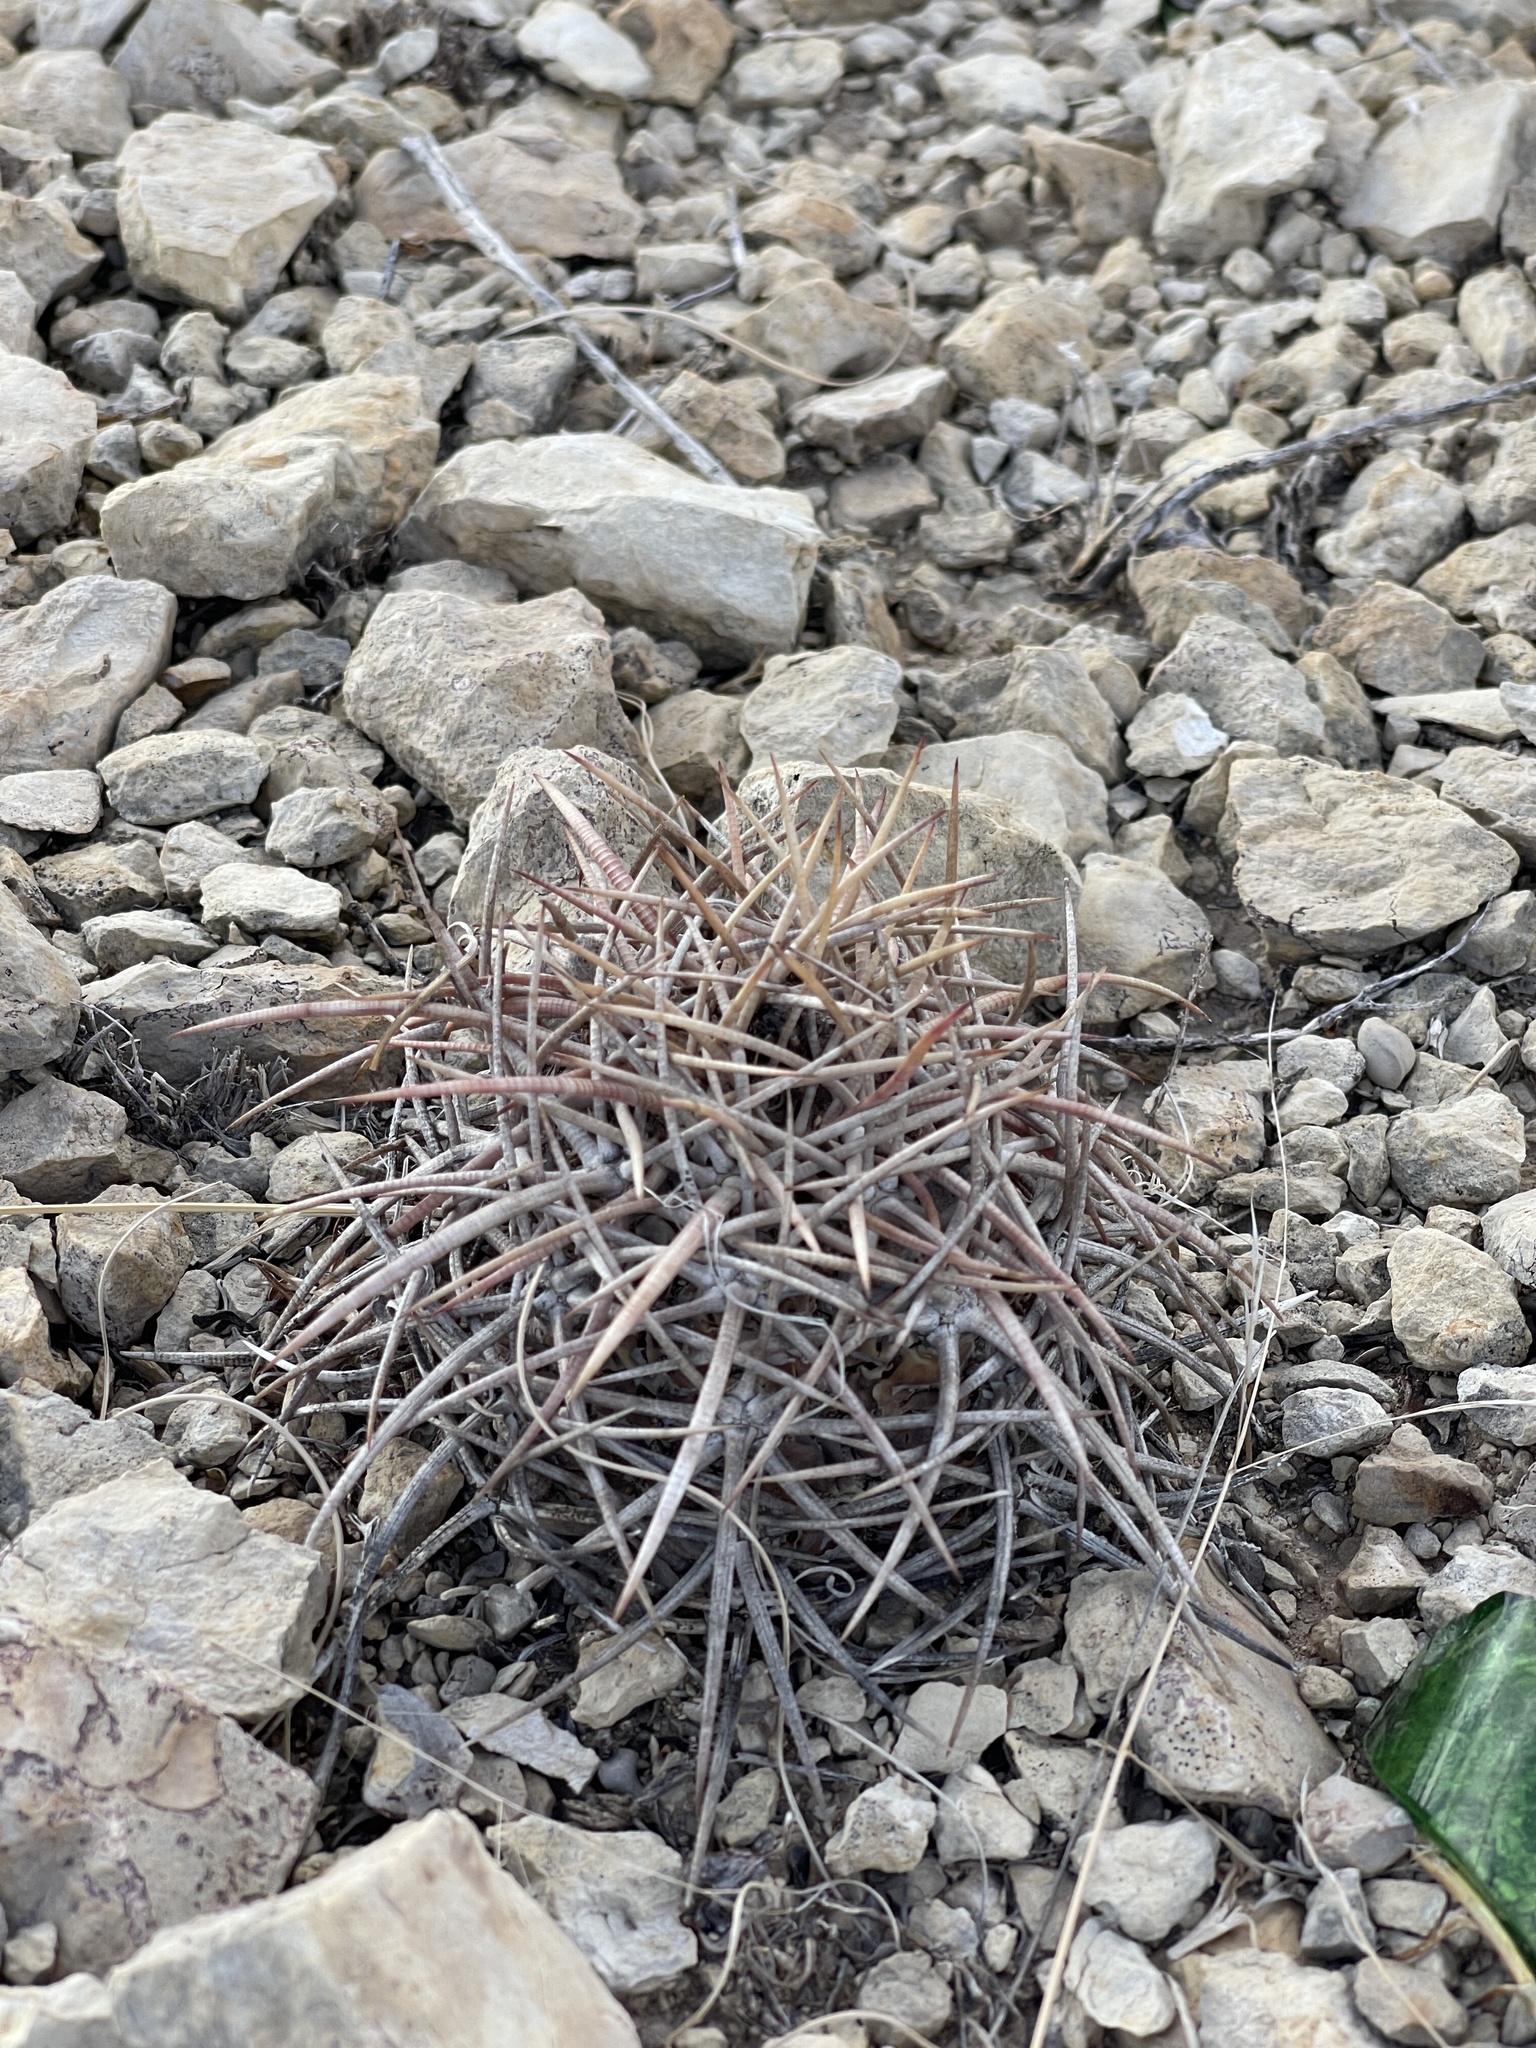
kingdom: Plantae
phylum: Tracheophyta
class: Magnoliopsida
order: Caryophyllales
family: Cactaceae
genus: Echinocactus
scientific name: Echinocactus horizonthalonius
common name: Devilshead
